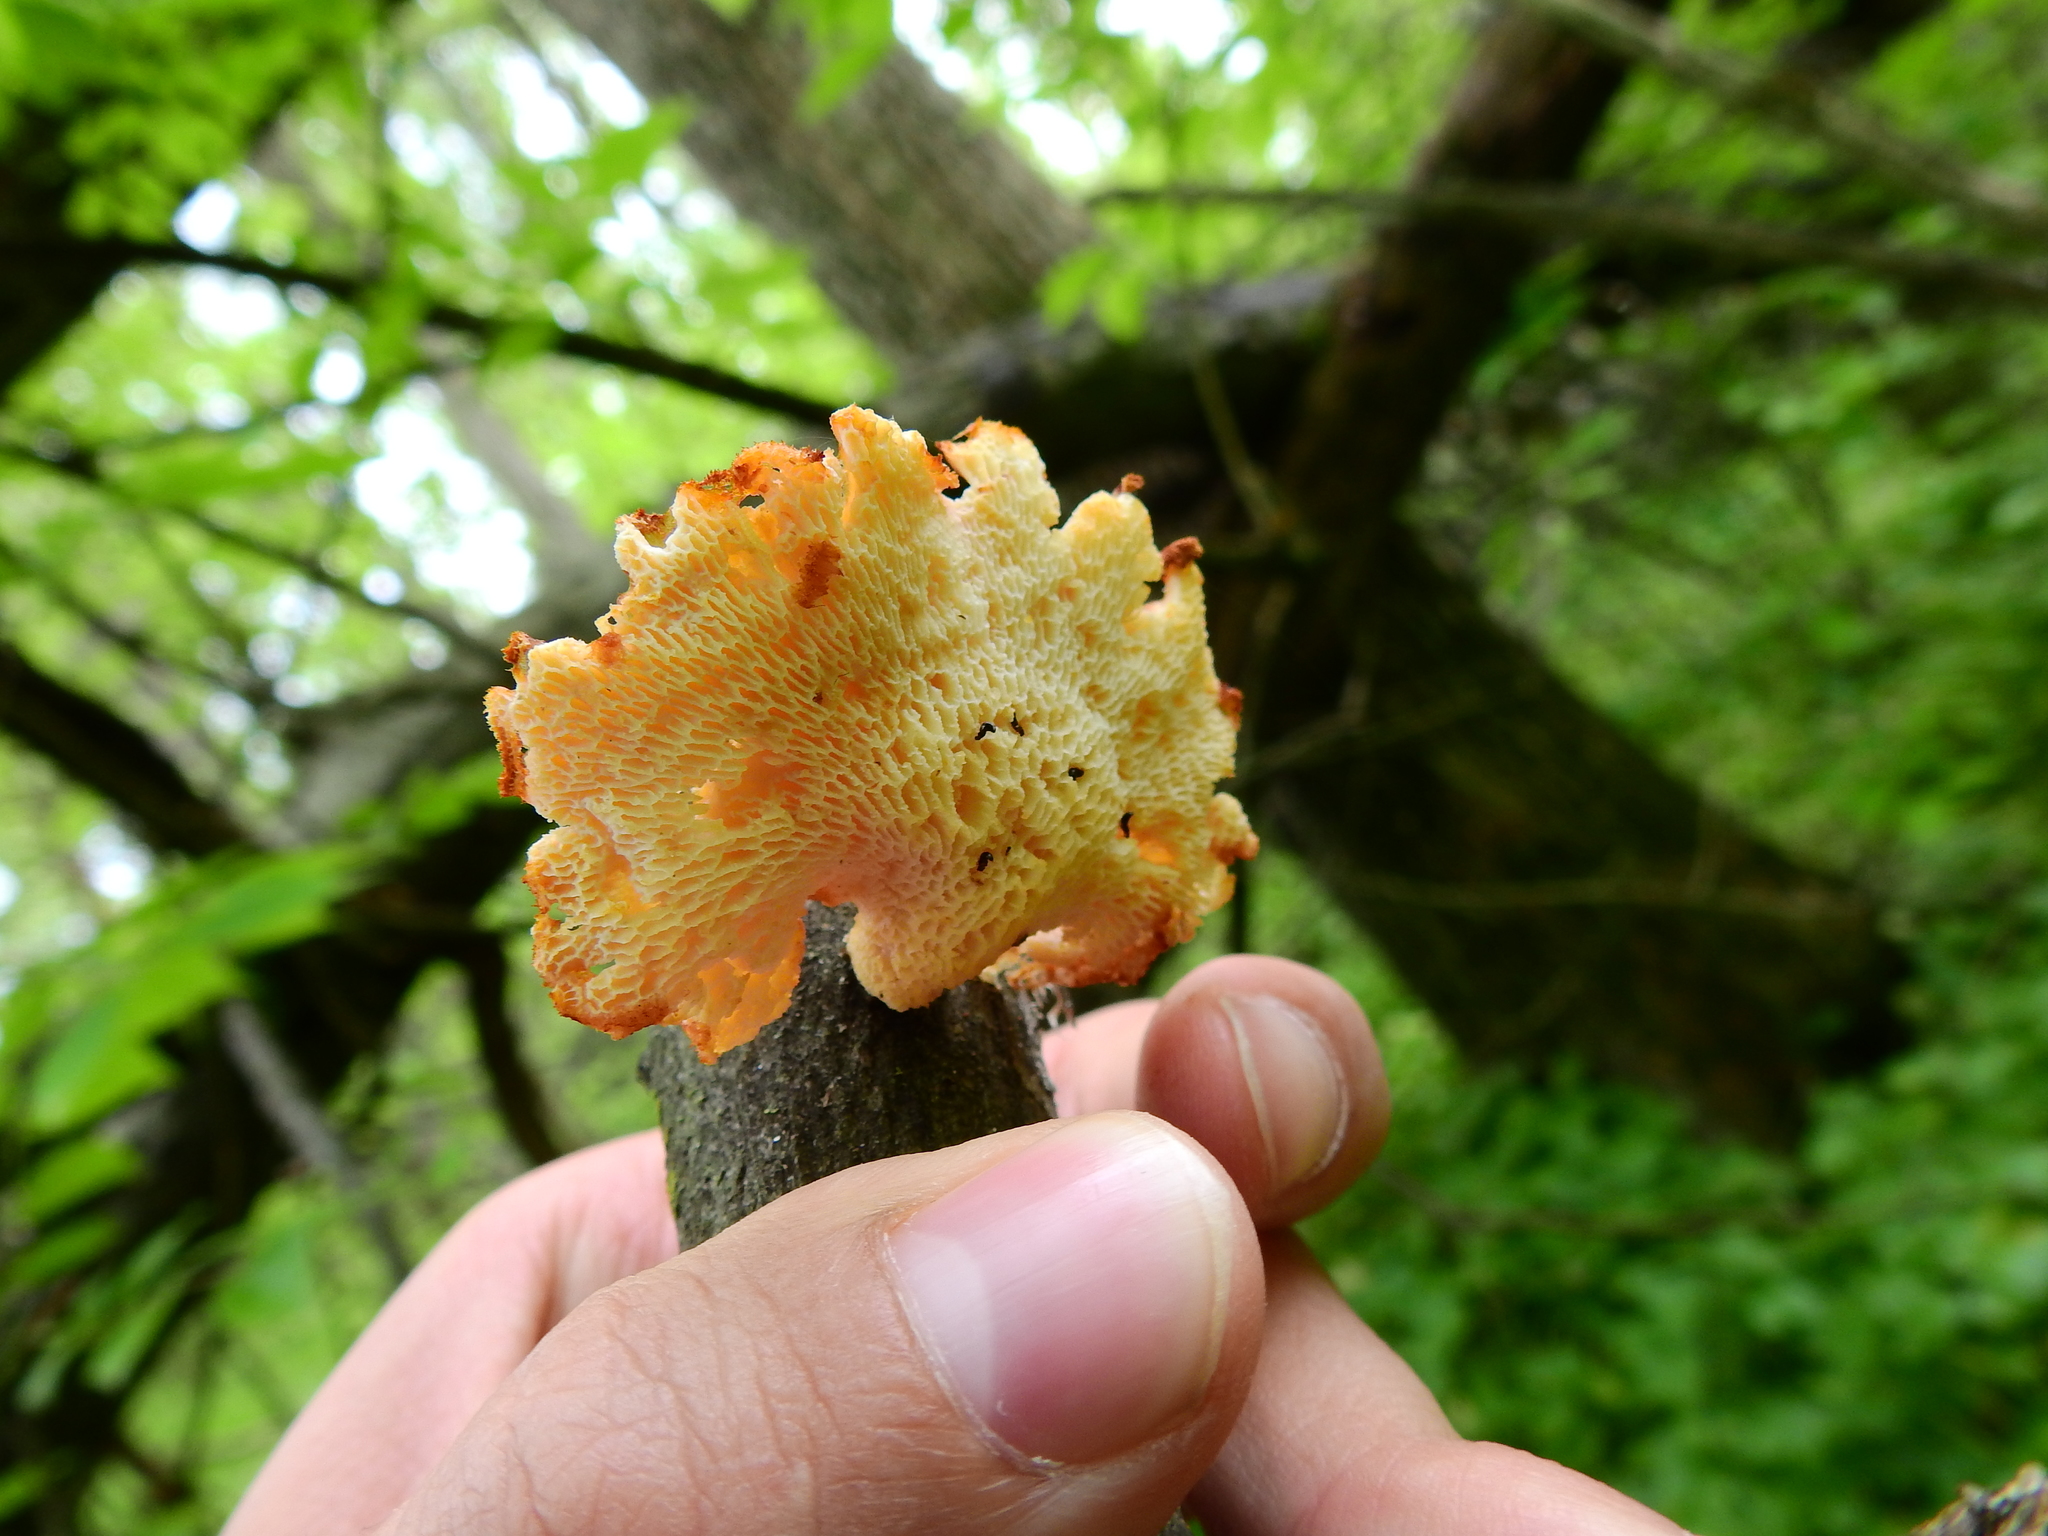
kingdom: Fungi
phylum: Basidiomycota
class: Agaricomycetes
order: Polyporales
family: Polyporaceae
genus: Neofavolus
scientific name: Neofavolus alveolaris
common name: Hexagonal-pored polypore
